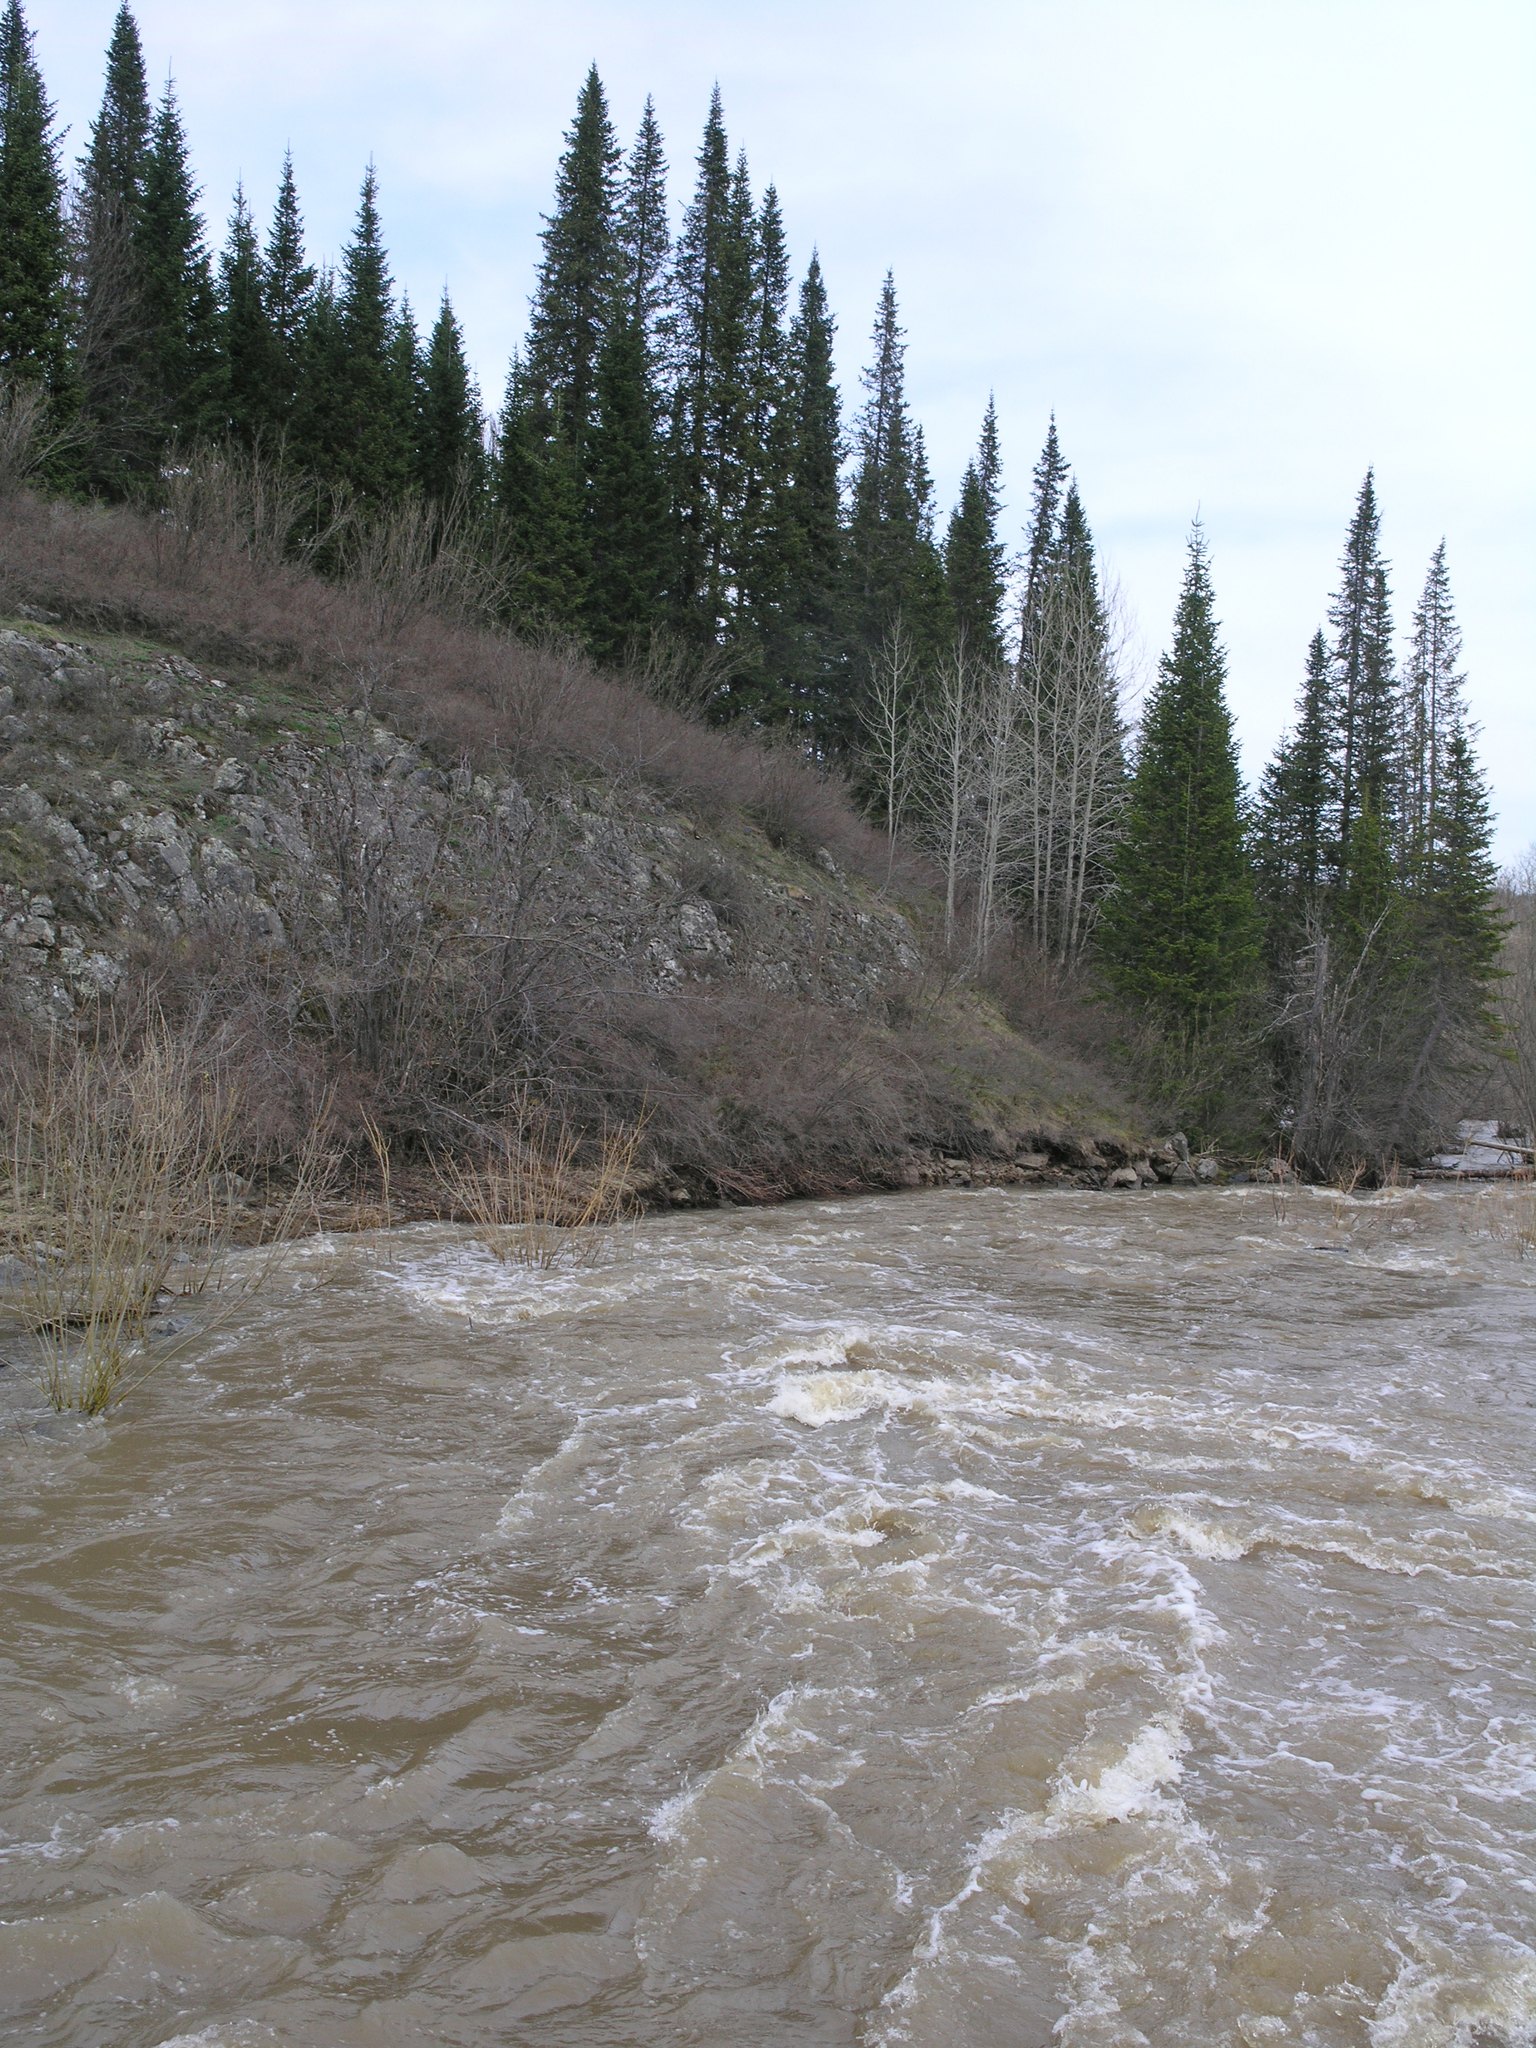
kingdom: Plantae
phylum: Tracheophyta
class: Pinopsida
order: Pinales
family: Pinaceae
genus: Abies
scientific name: Abies sibirica
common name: Siberian fir
